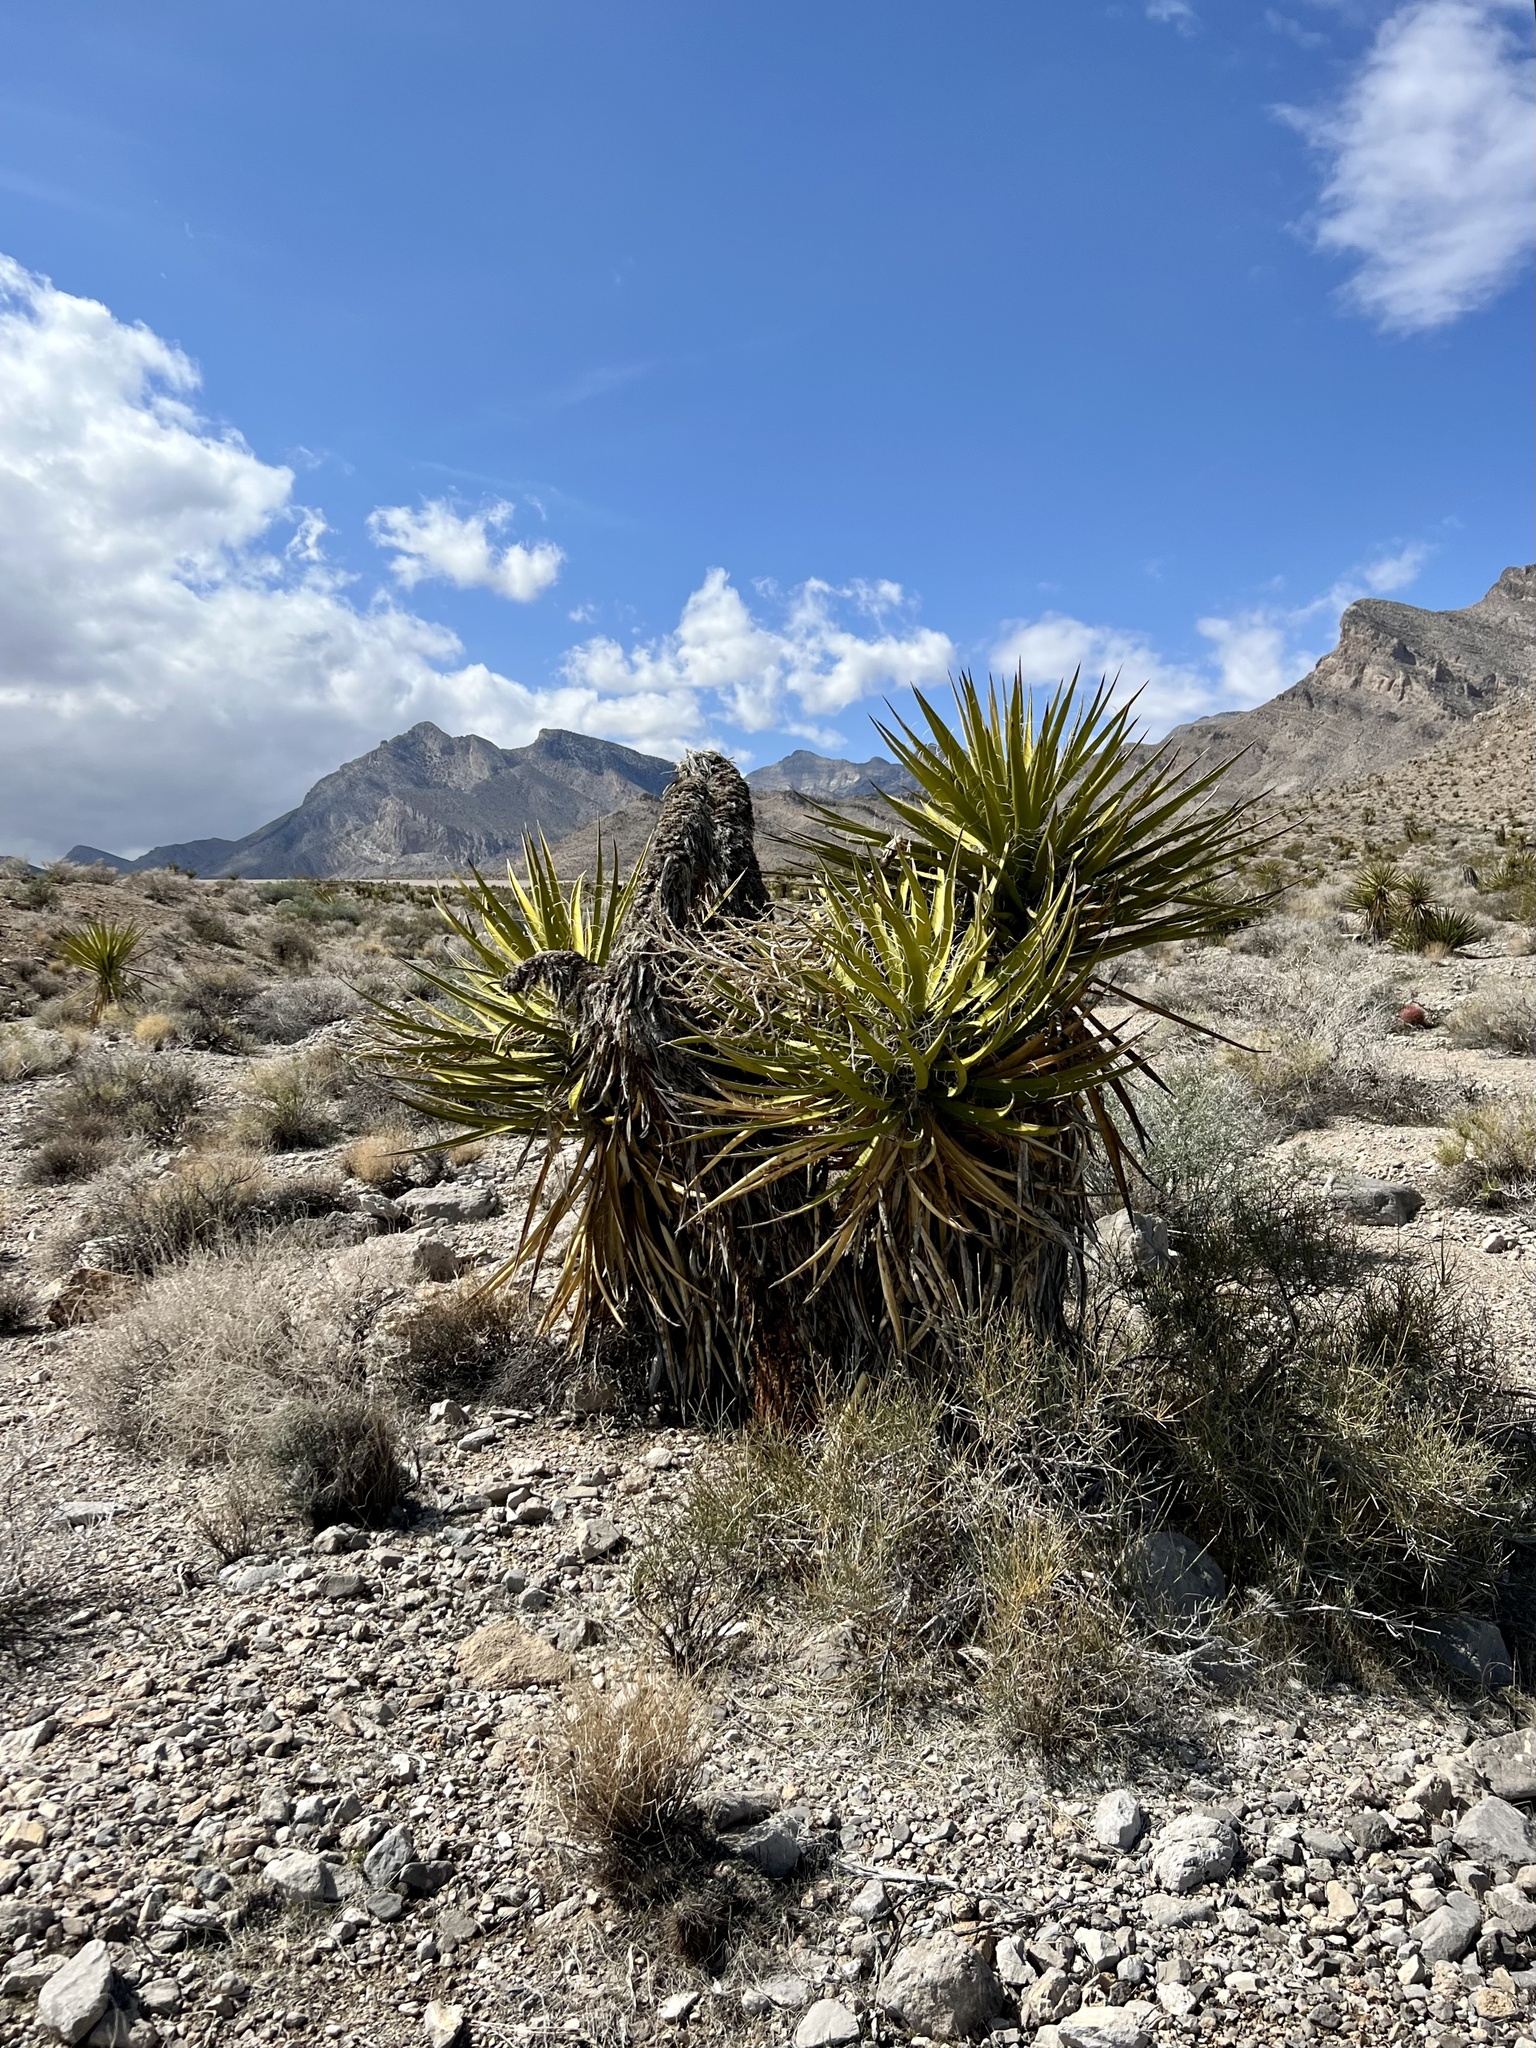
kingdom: Plantae
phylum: Tracheophyta
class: Liliopsida
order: Asparagales
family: Asparagaceae
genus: Yucca
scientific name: Yucca schidigera
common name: Mojave yucca
